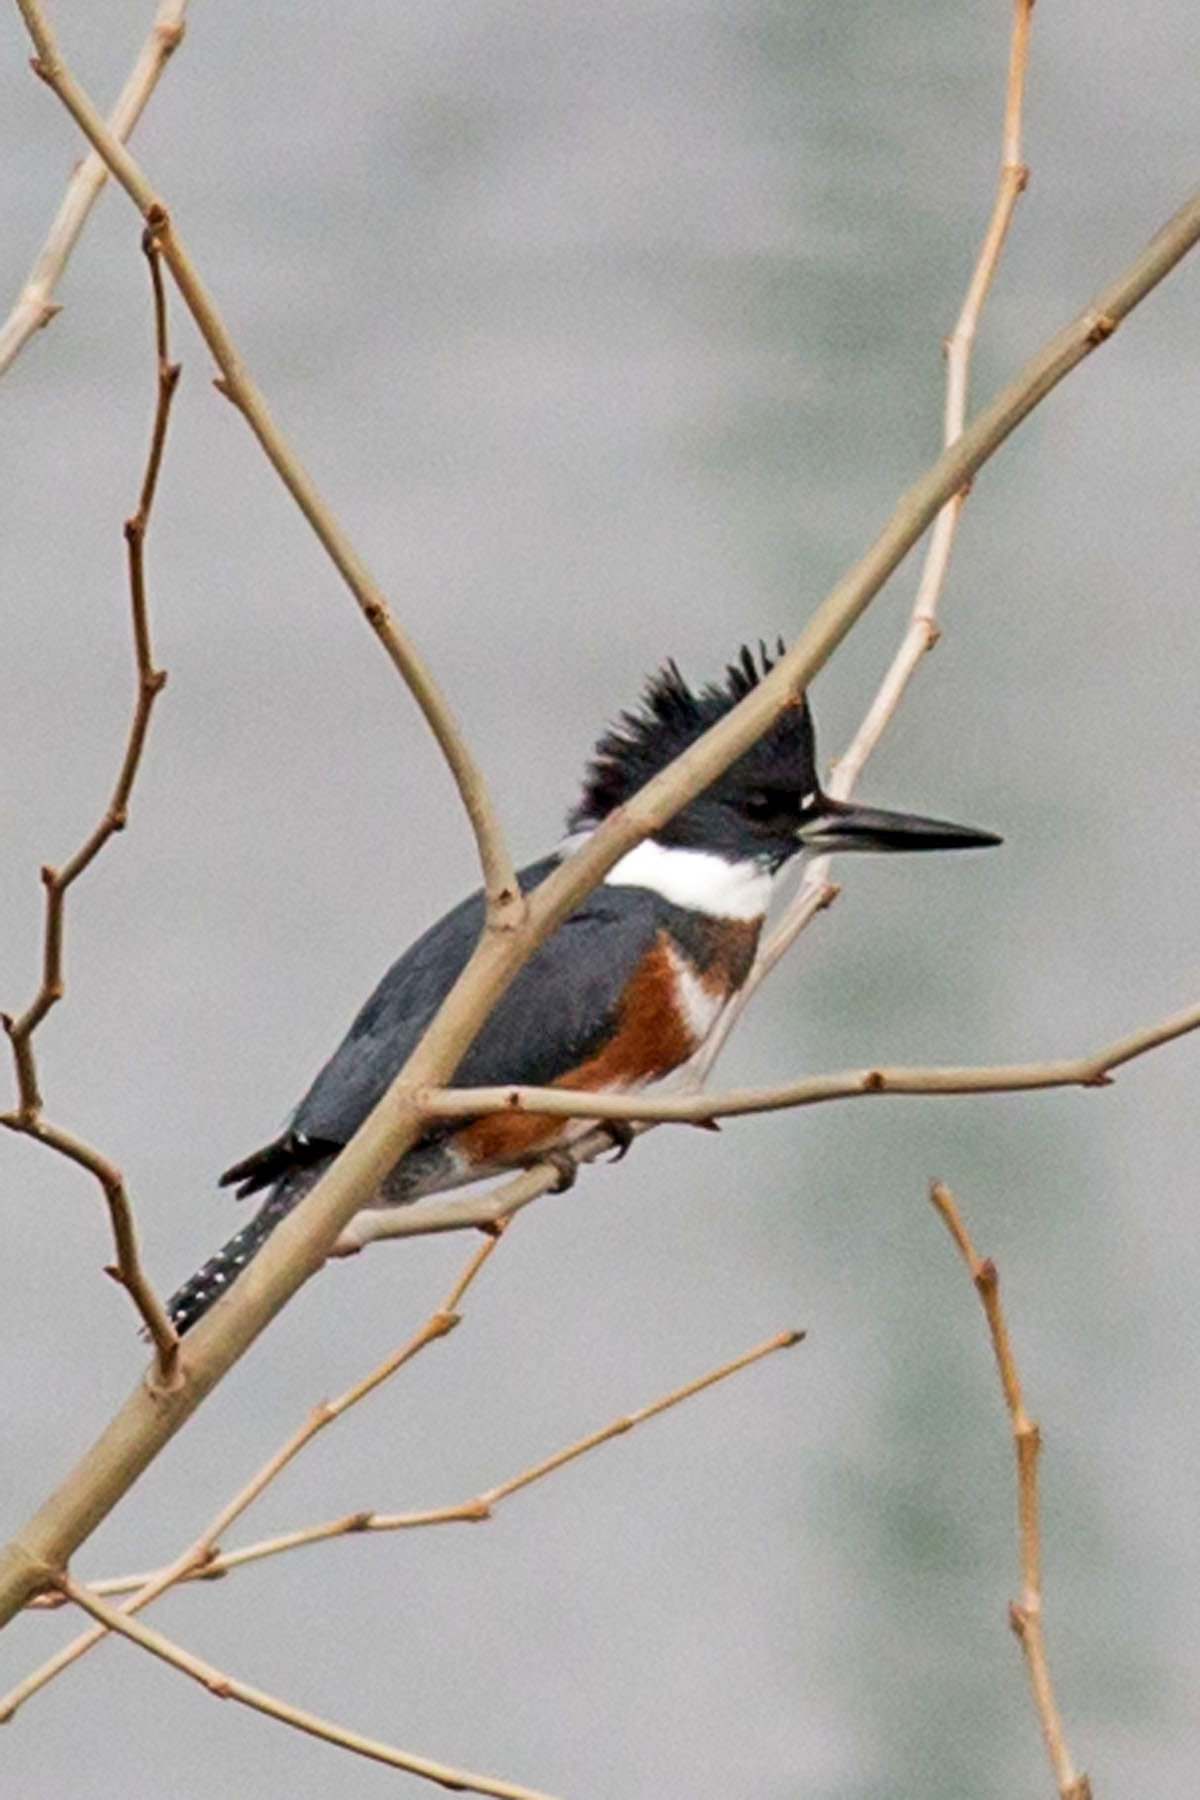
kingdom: Animalia
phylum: Chordata
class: Aves
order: Coraciiformes
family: Alcedinidae
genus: Megaceryle
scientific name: Megaceryle alcyon
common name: Belted kingfisher
